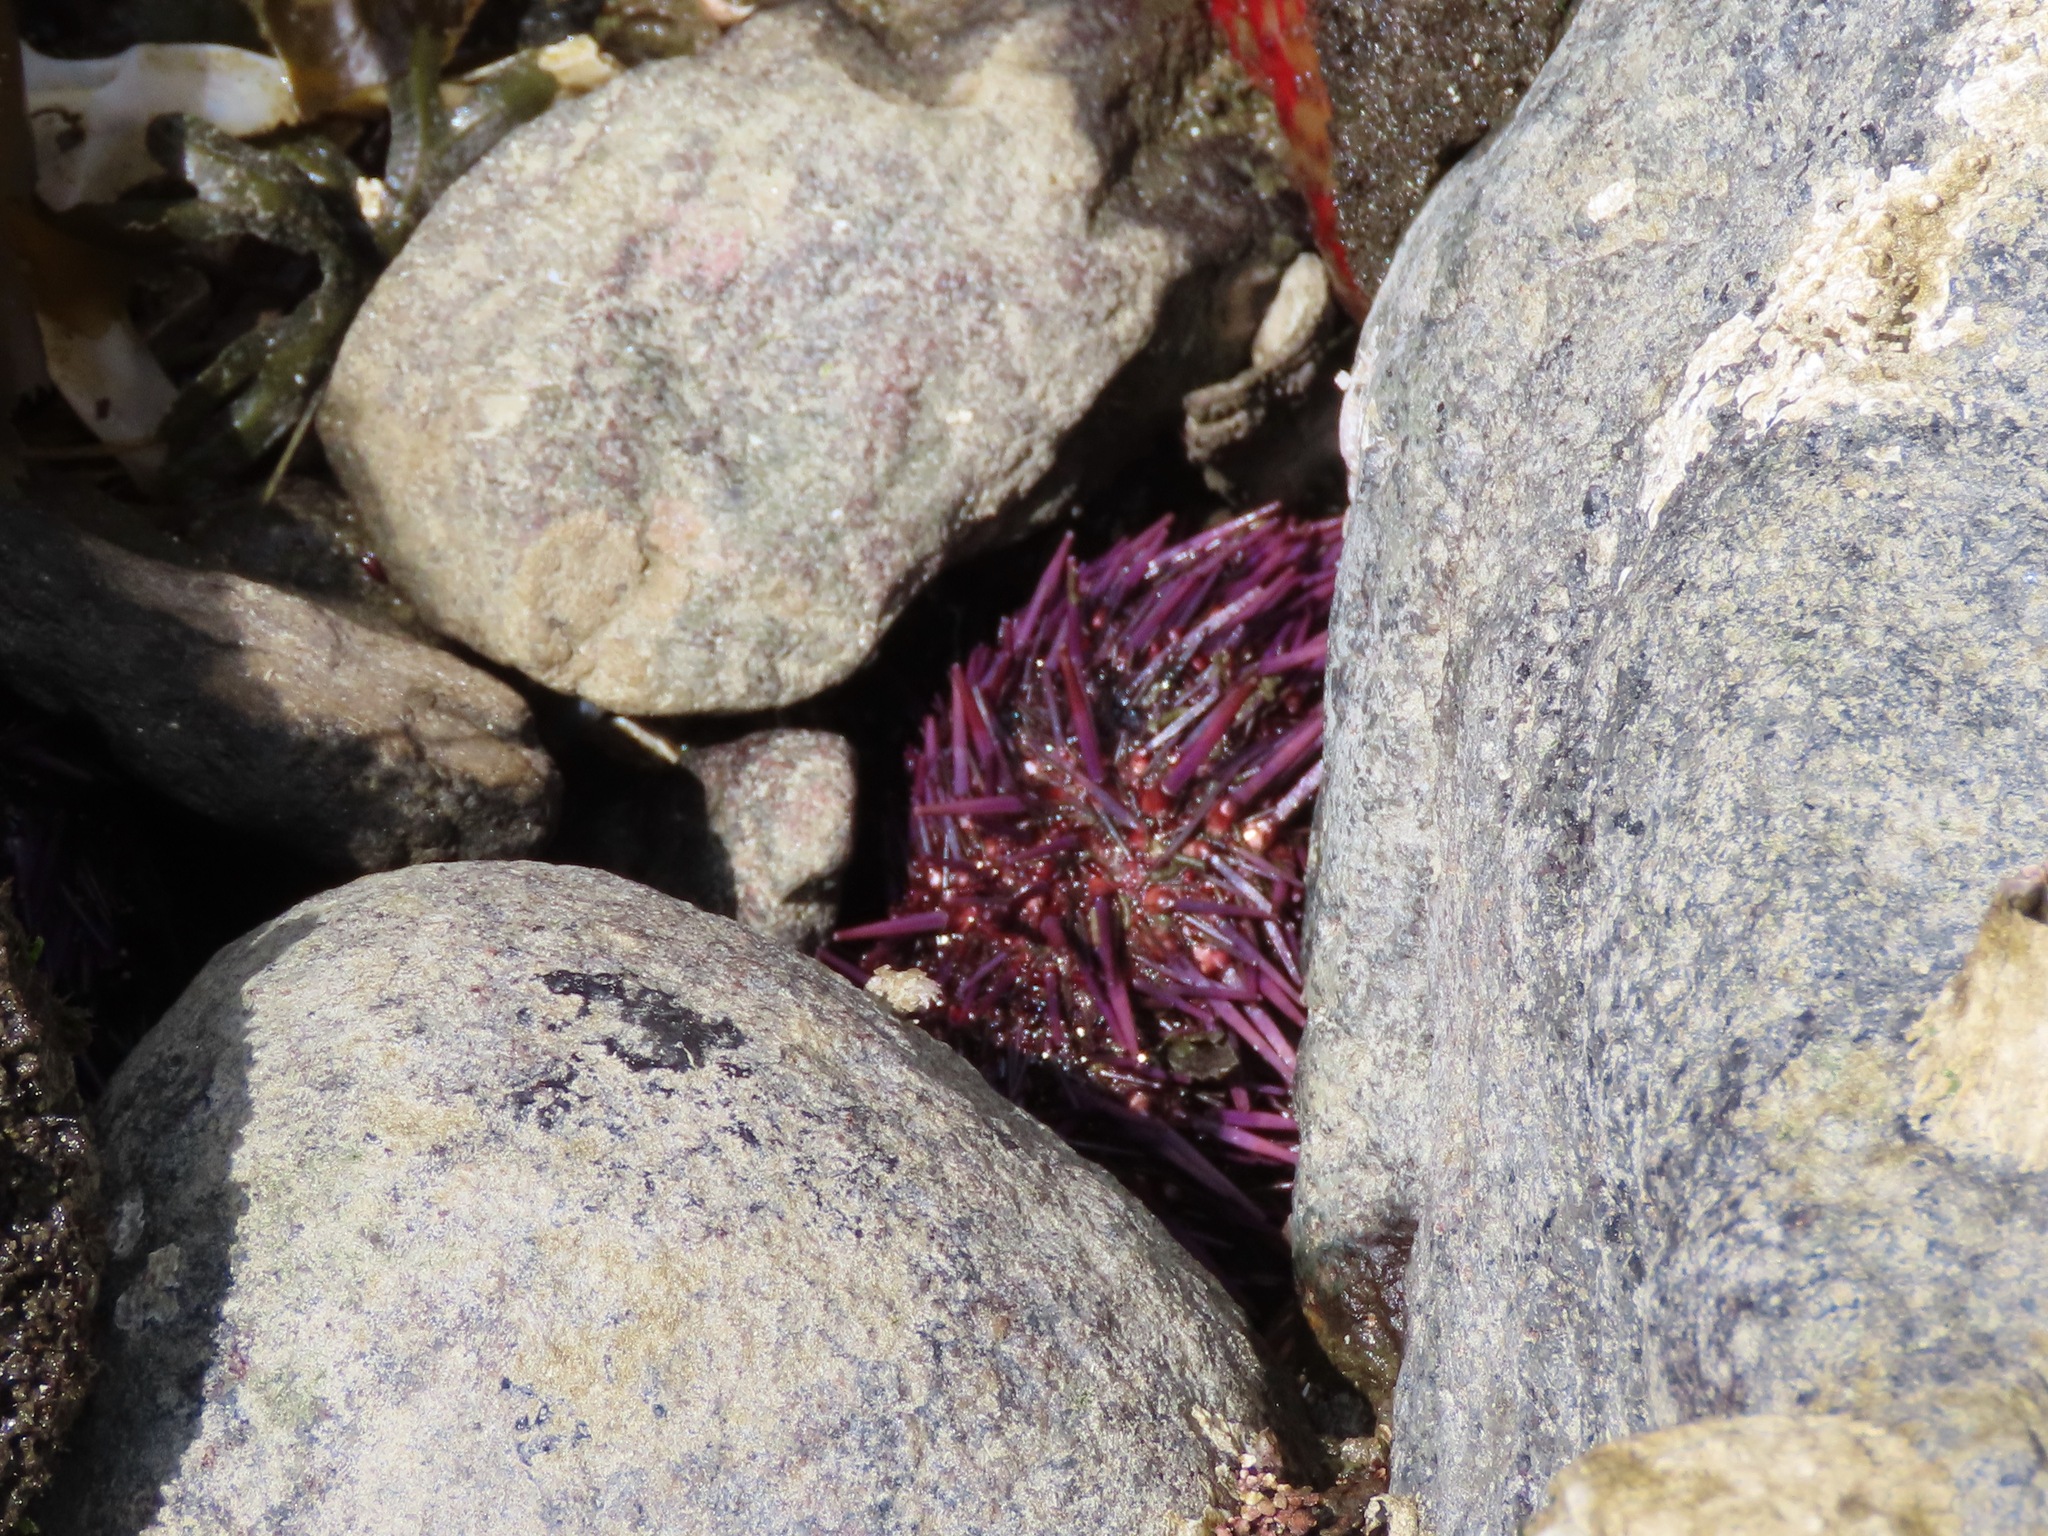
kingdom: Animalia
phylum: Echinodermata
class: Echinoidea
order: Camarodonta
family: Strongylocentrotidae
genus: Strongylocentrotus
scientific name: Strongylocentrotus purpuratus
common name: Purple sea urchin
